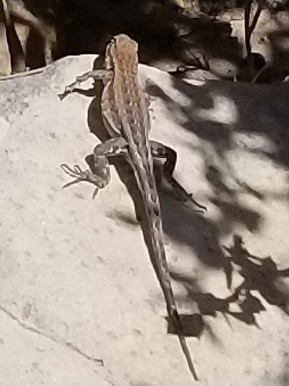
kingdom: Animalia
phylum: Chordata
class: Squamata
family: Phrynosomatidae
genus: Uta
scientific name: Uta stansburiana
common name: Side-blotched lizard
